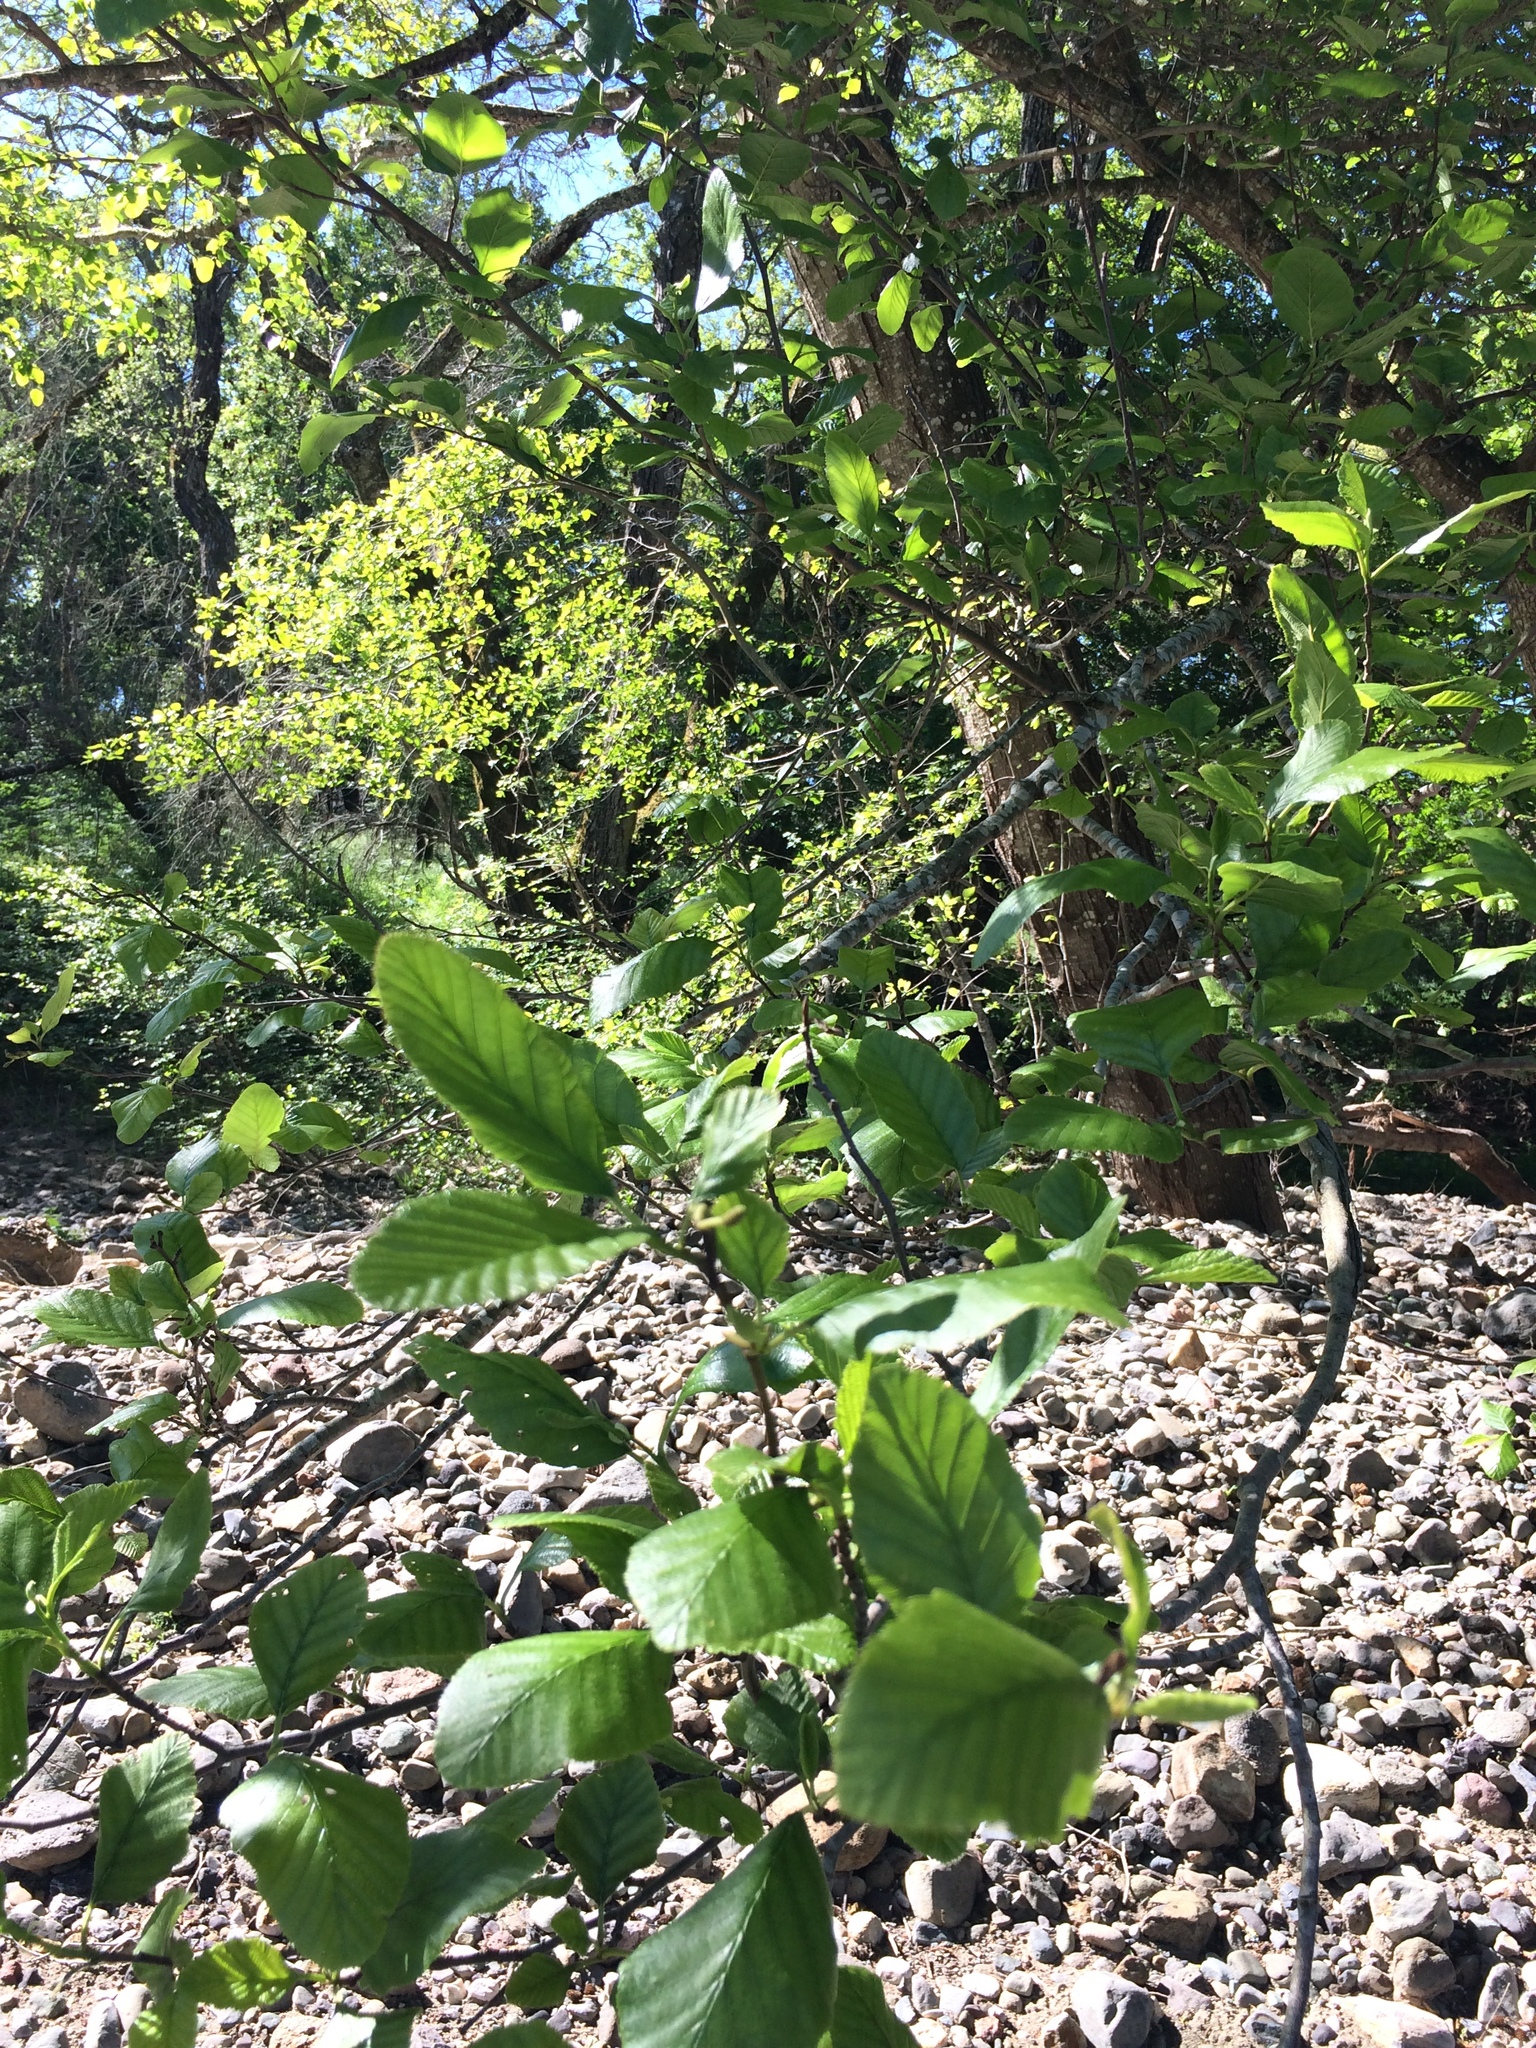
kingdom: Plantae
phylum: Tracheophyta
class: Magnoliopsida
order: Fagales
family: Betulaceae
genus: Alnus
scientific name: Alnus rhombifolia
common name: California alder
